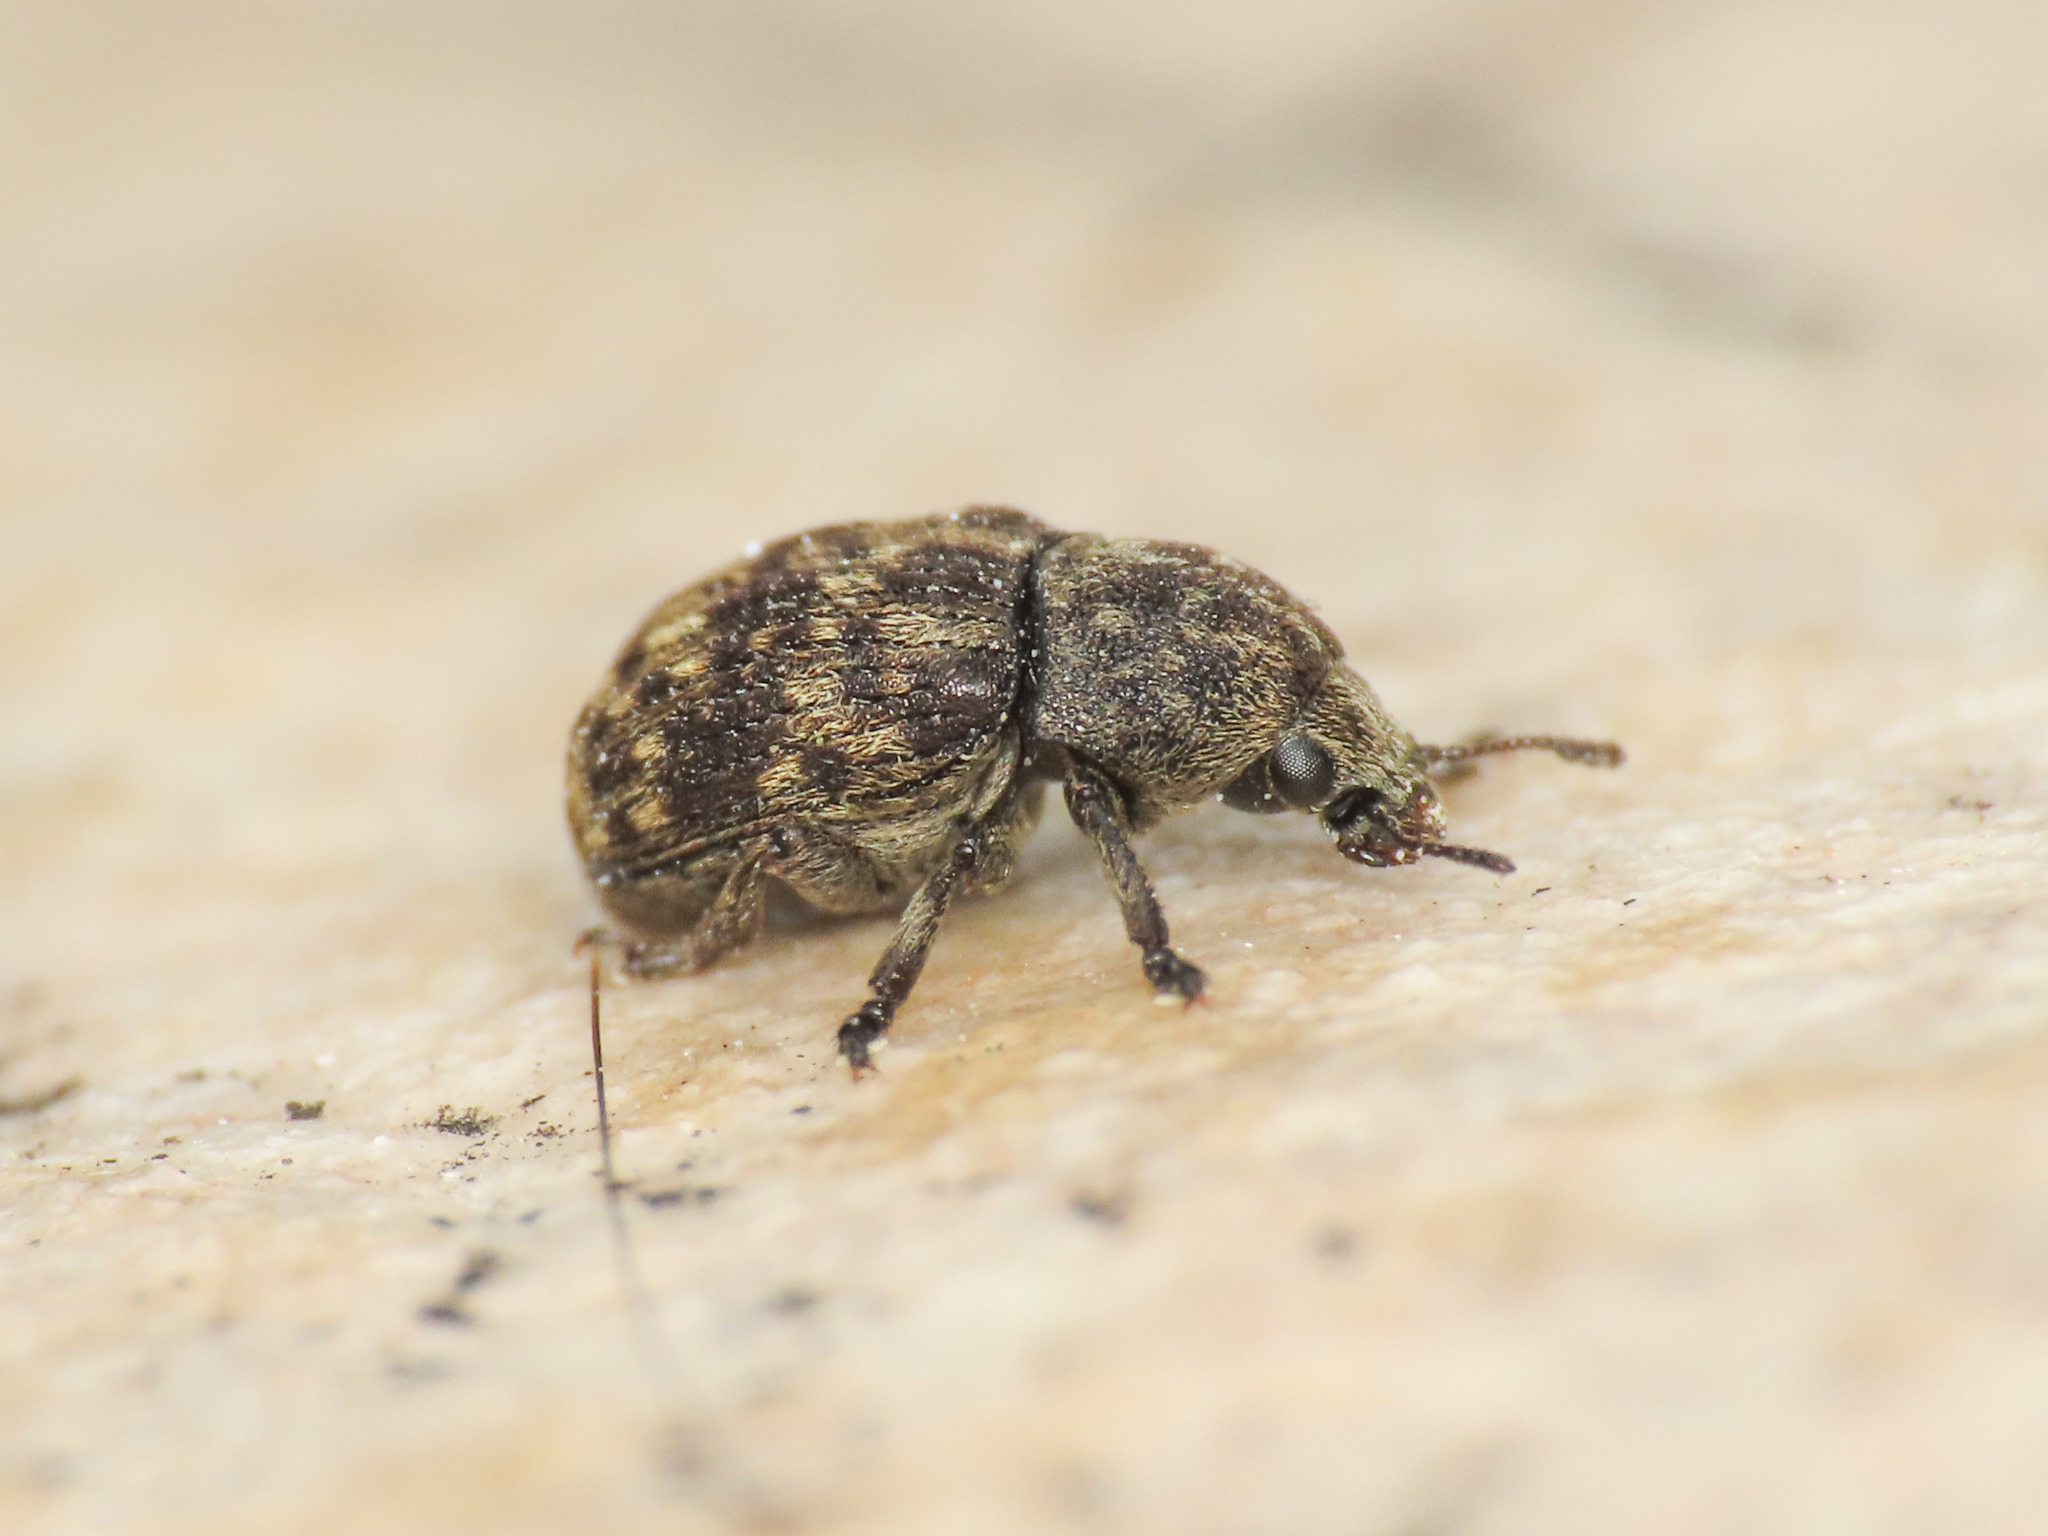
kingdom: Animalia
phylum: Arthropoda
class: Insecta
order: Coleoptera
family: Anthribidae
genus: Anthribus
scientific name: Anthribus nebulosus
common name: Fungus weevil
